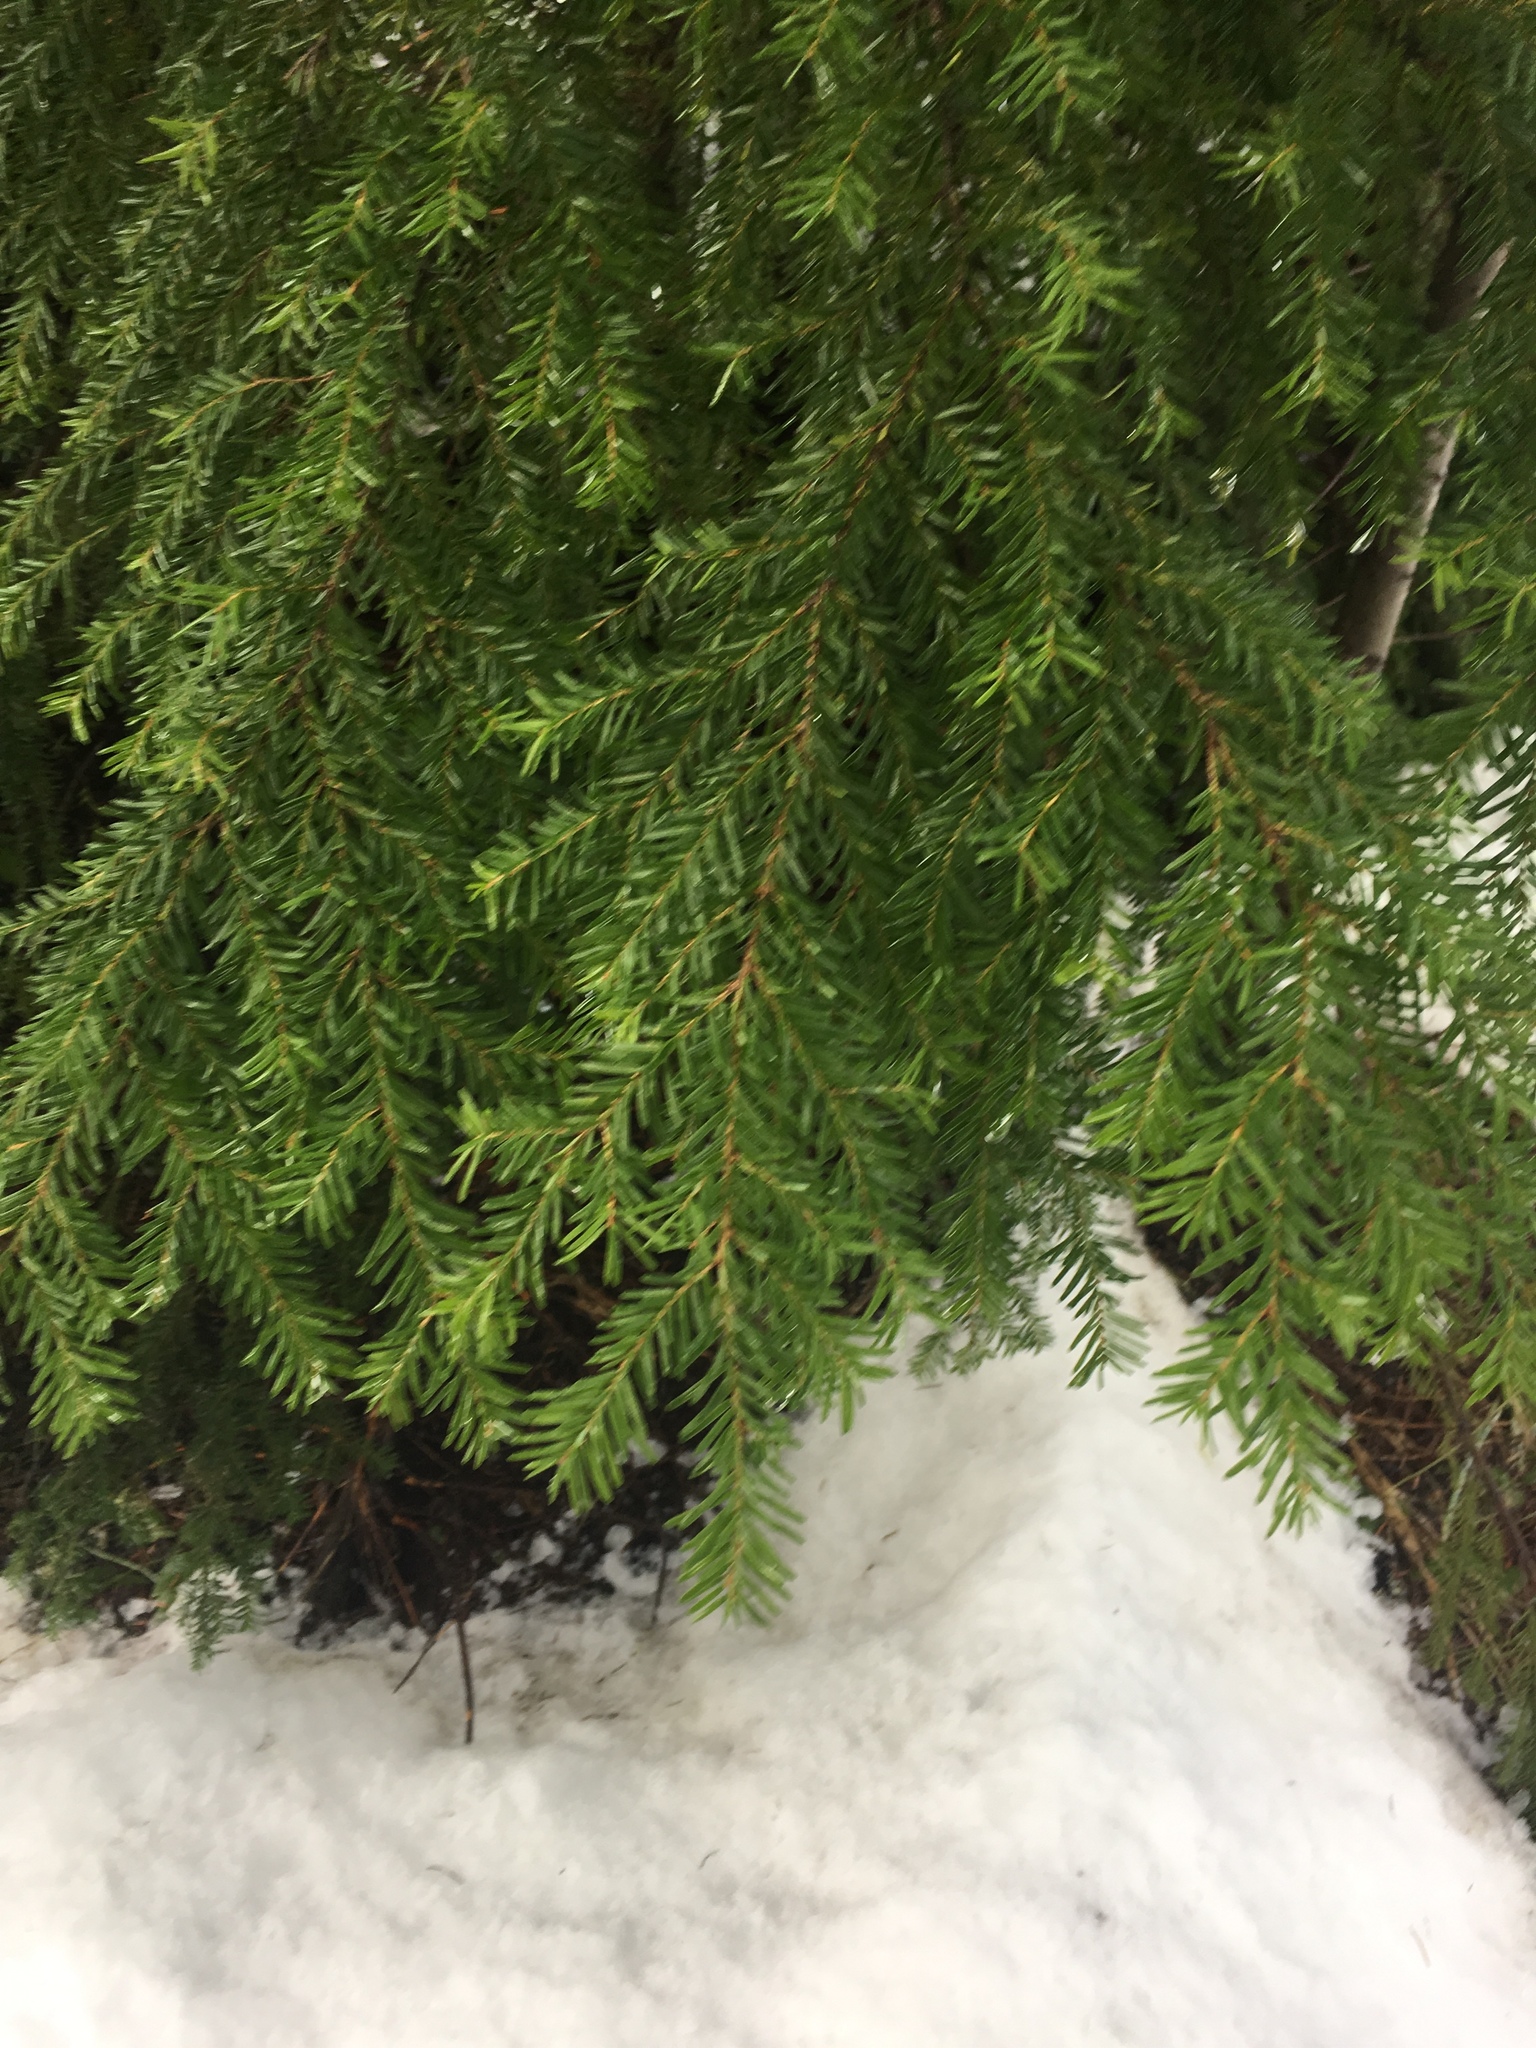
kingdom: Plantae
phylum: Tracheophyta
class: Pinopsida
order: Pinales
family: Pinaceae
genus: Tsuga
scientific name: Tsuga mertensiana
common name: Mountain hemlock
